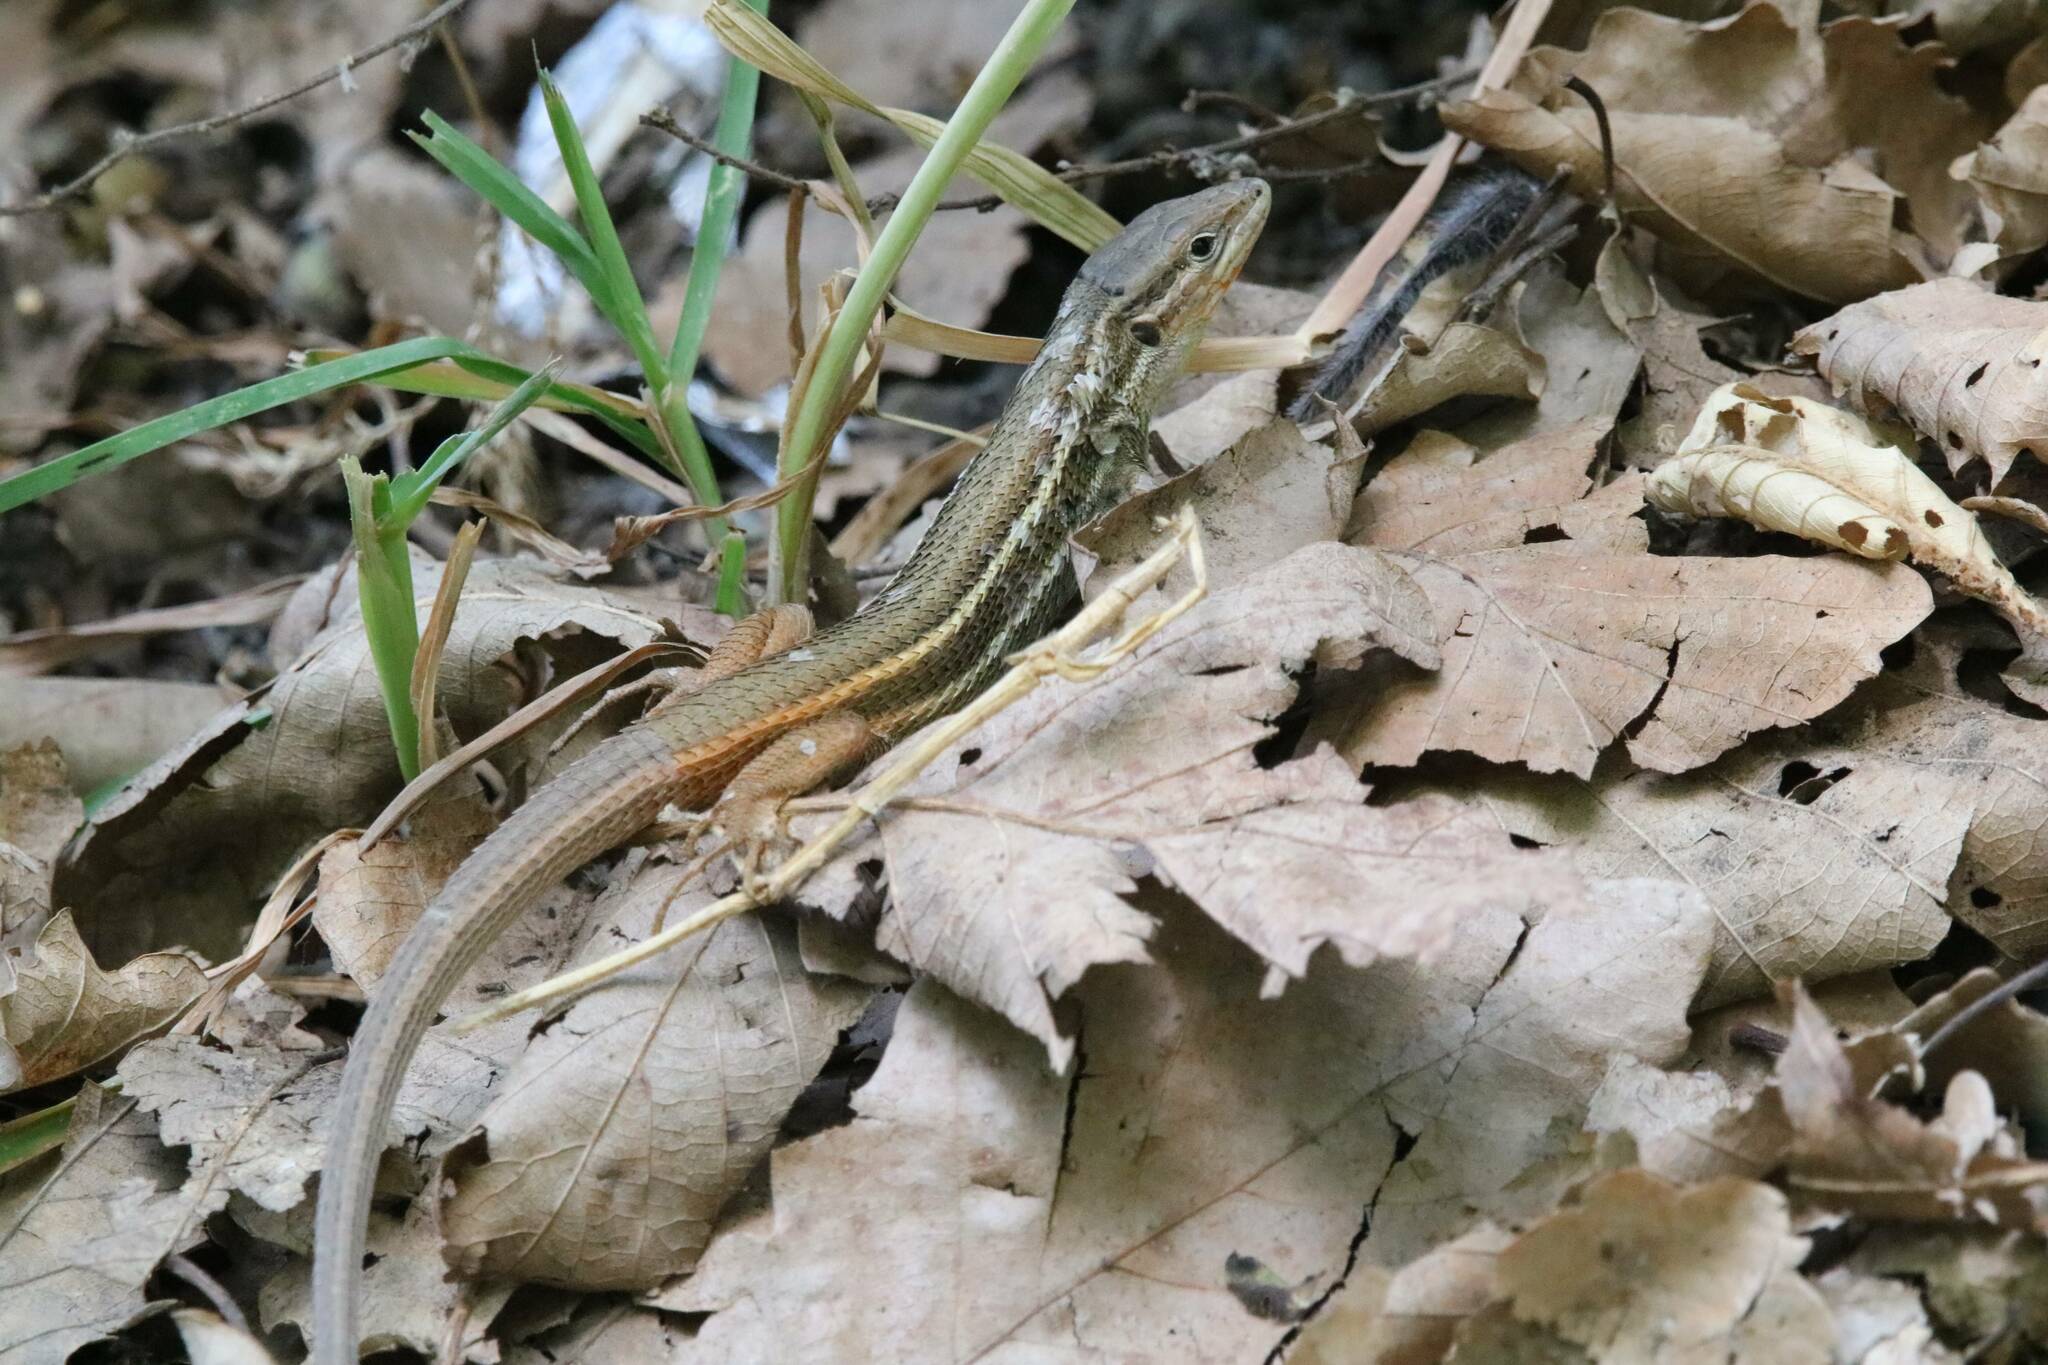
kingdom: Animalia
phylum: Chordata
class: Squamata
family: Lacertidae
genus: Psammodromus
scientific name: Psammodromus algirus
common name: Algerian psammodromus
